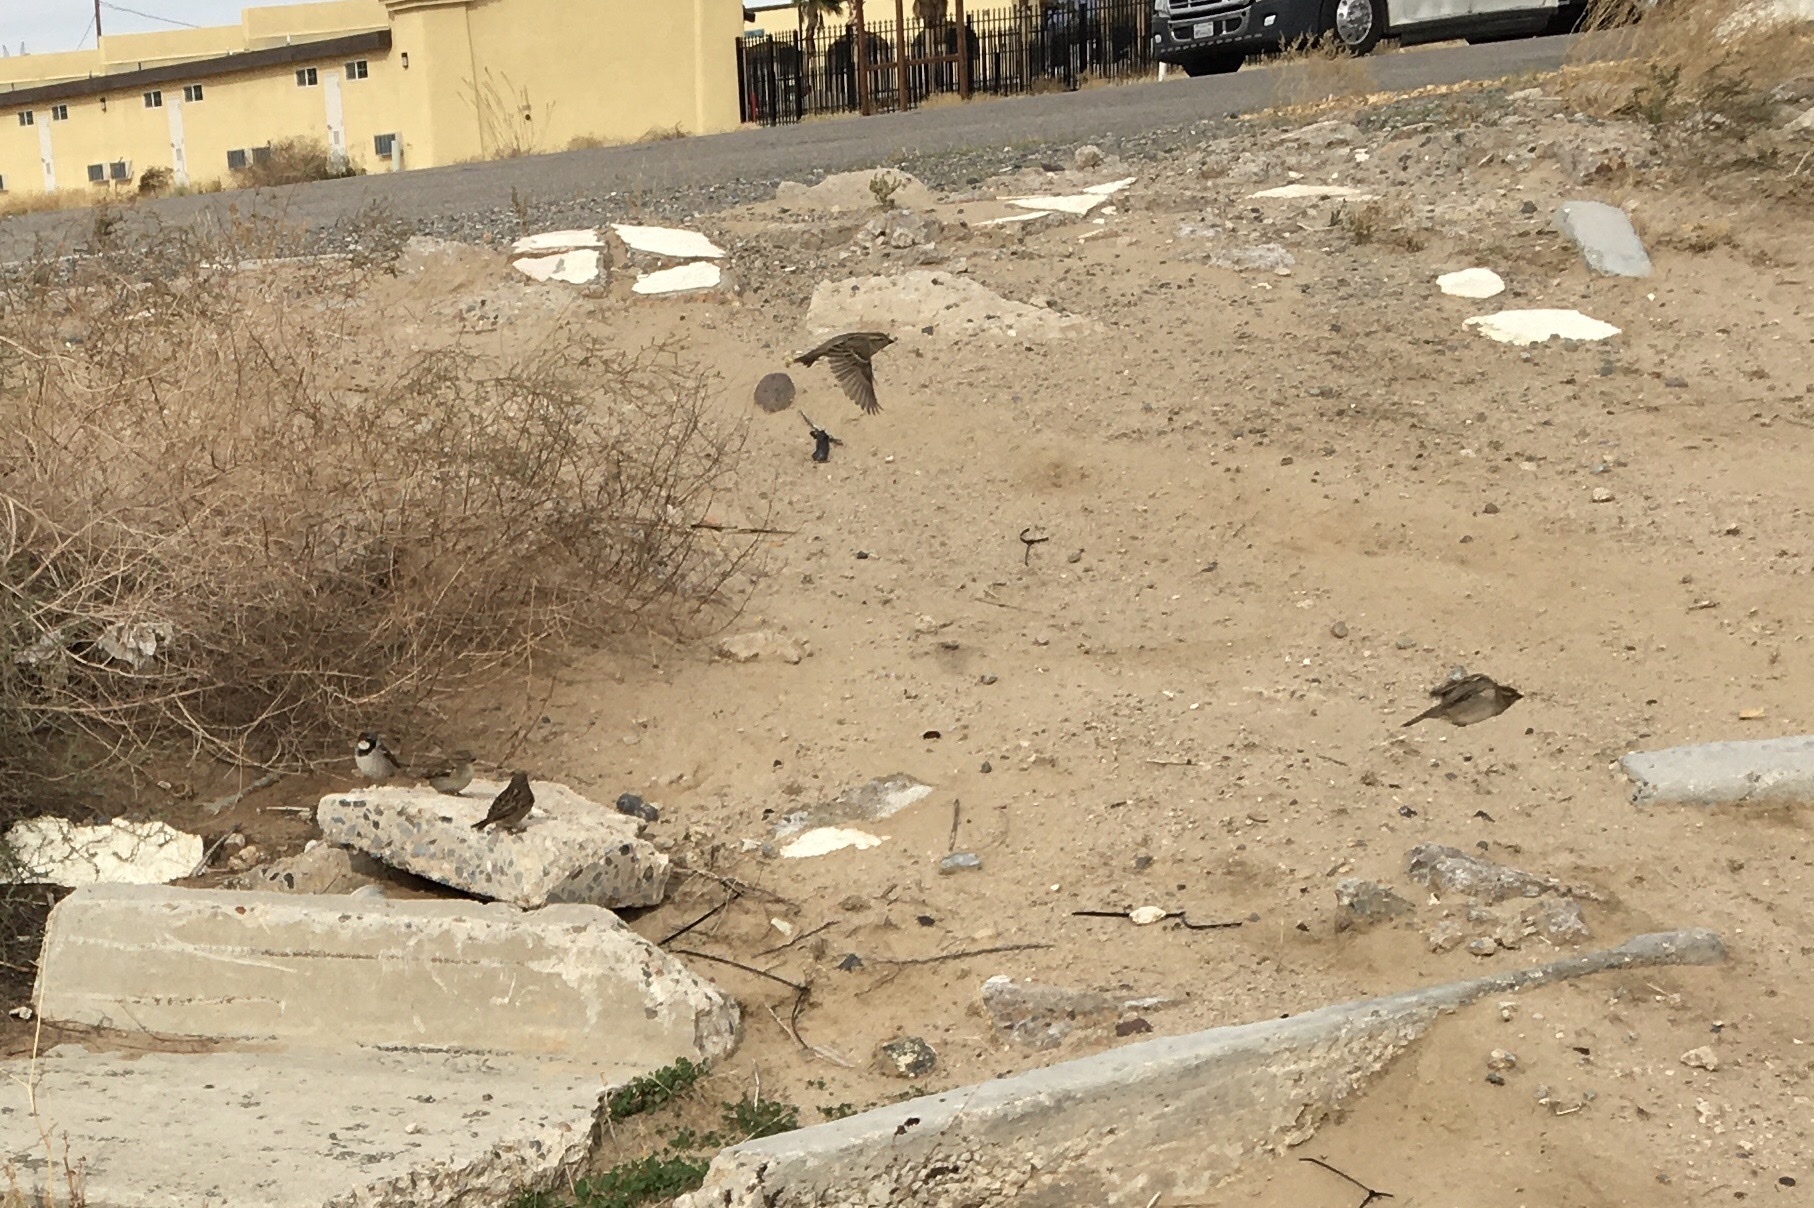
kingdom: Animalia
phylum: Chordata
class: Aves
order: Passeriformes
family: Passeridae
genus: Passer
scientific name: Passer domesticus
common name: House sparrow
